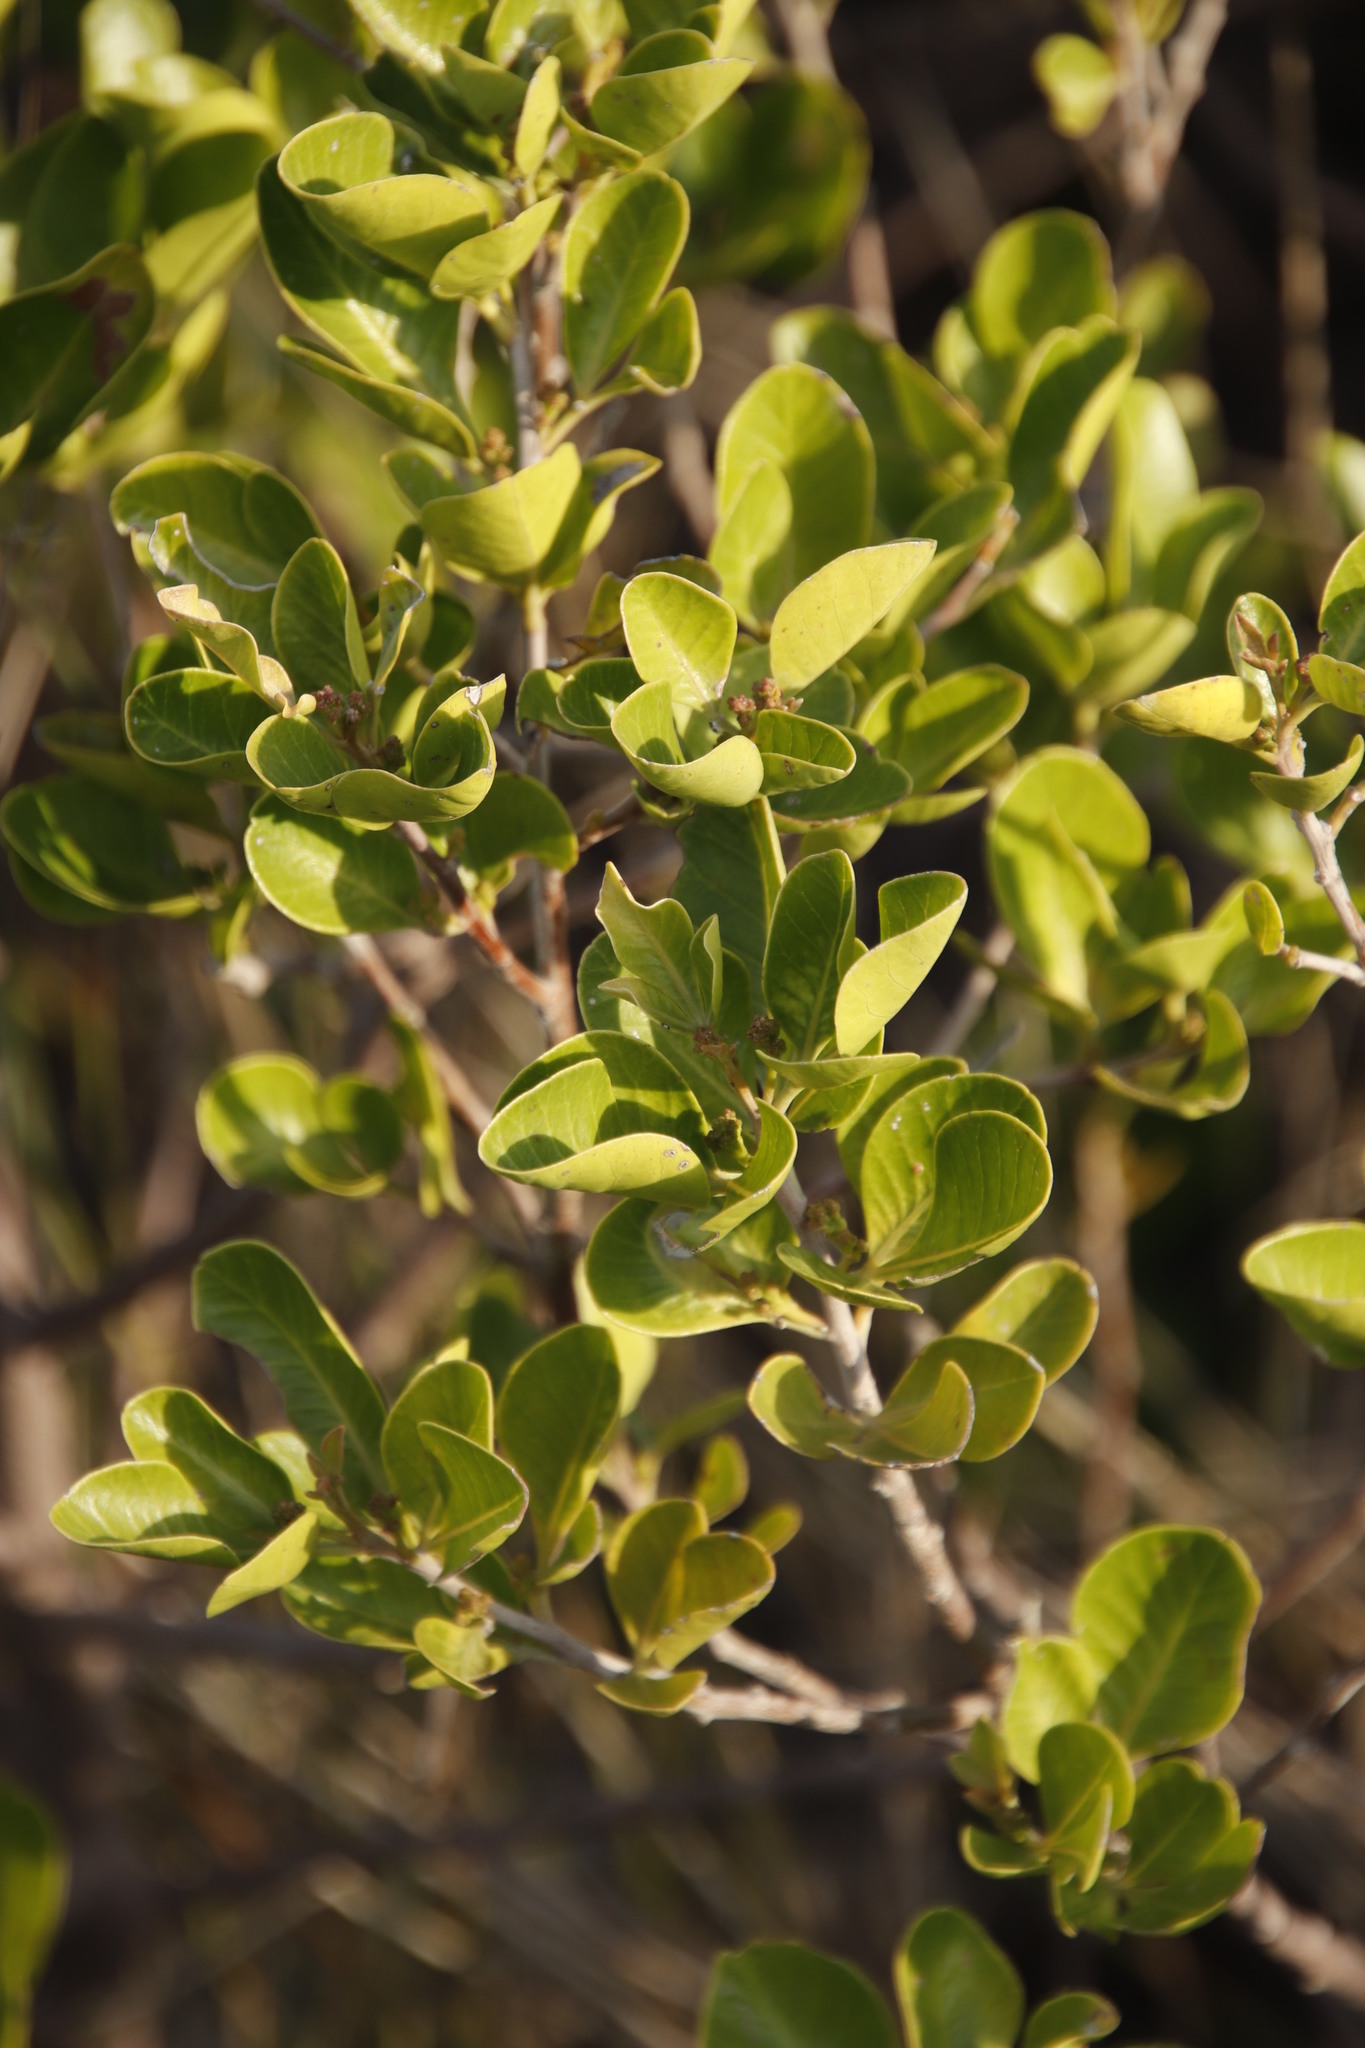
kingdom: Plantae
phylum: Tracheophyta
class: Magnoliopsida
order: Sapindales
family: Anacardiaceae
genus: Searsia
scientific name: Searsia lucida
